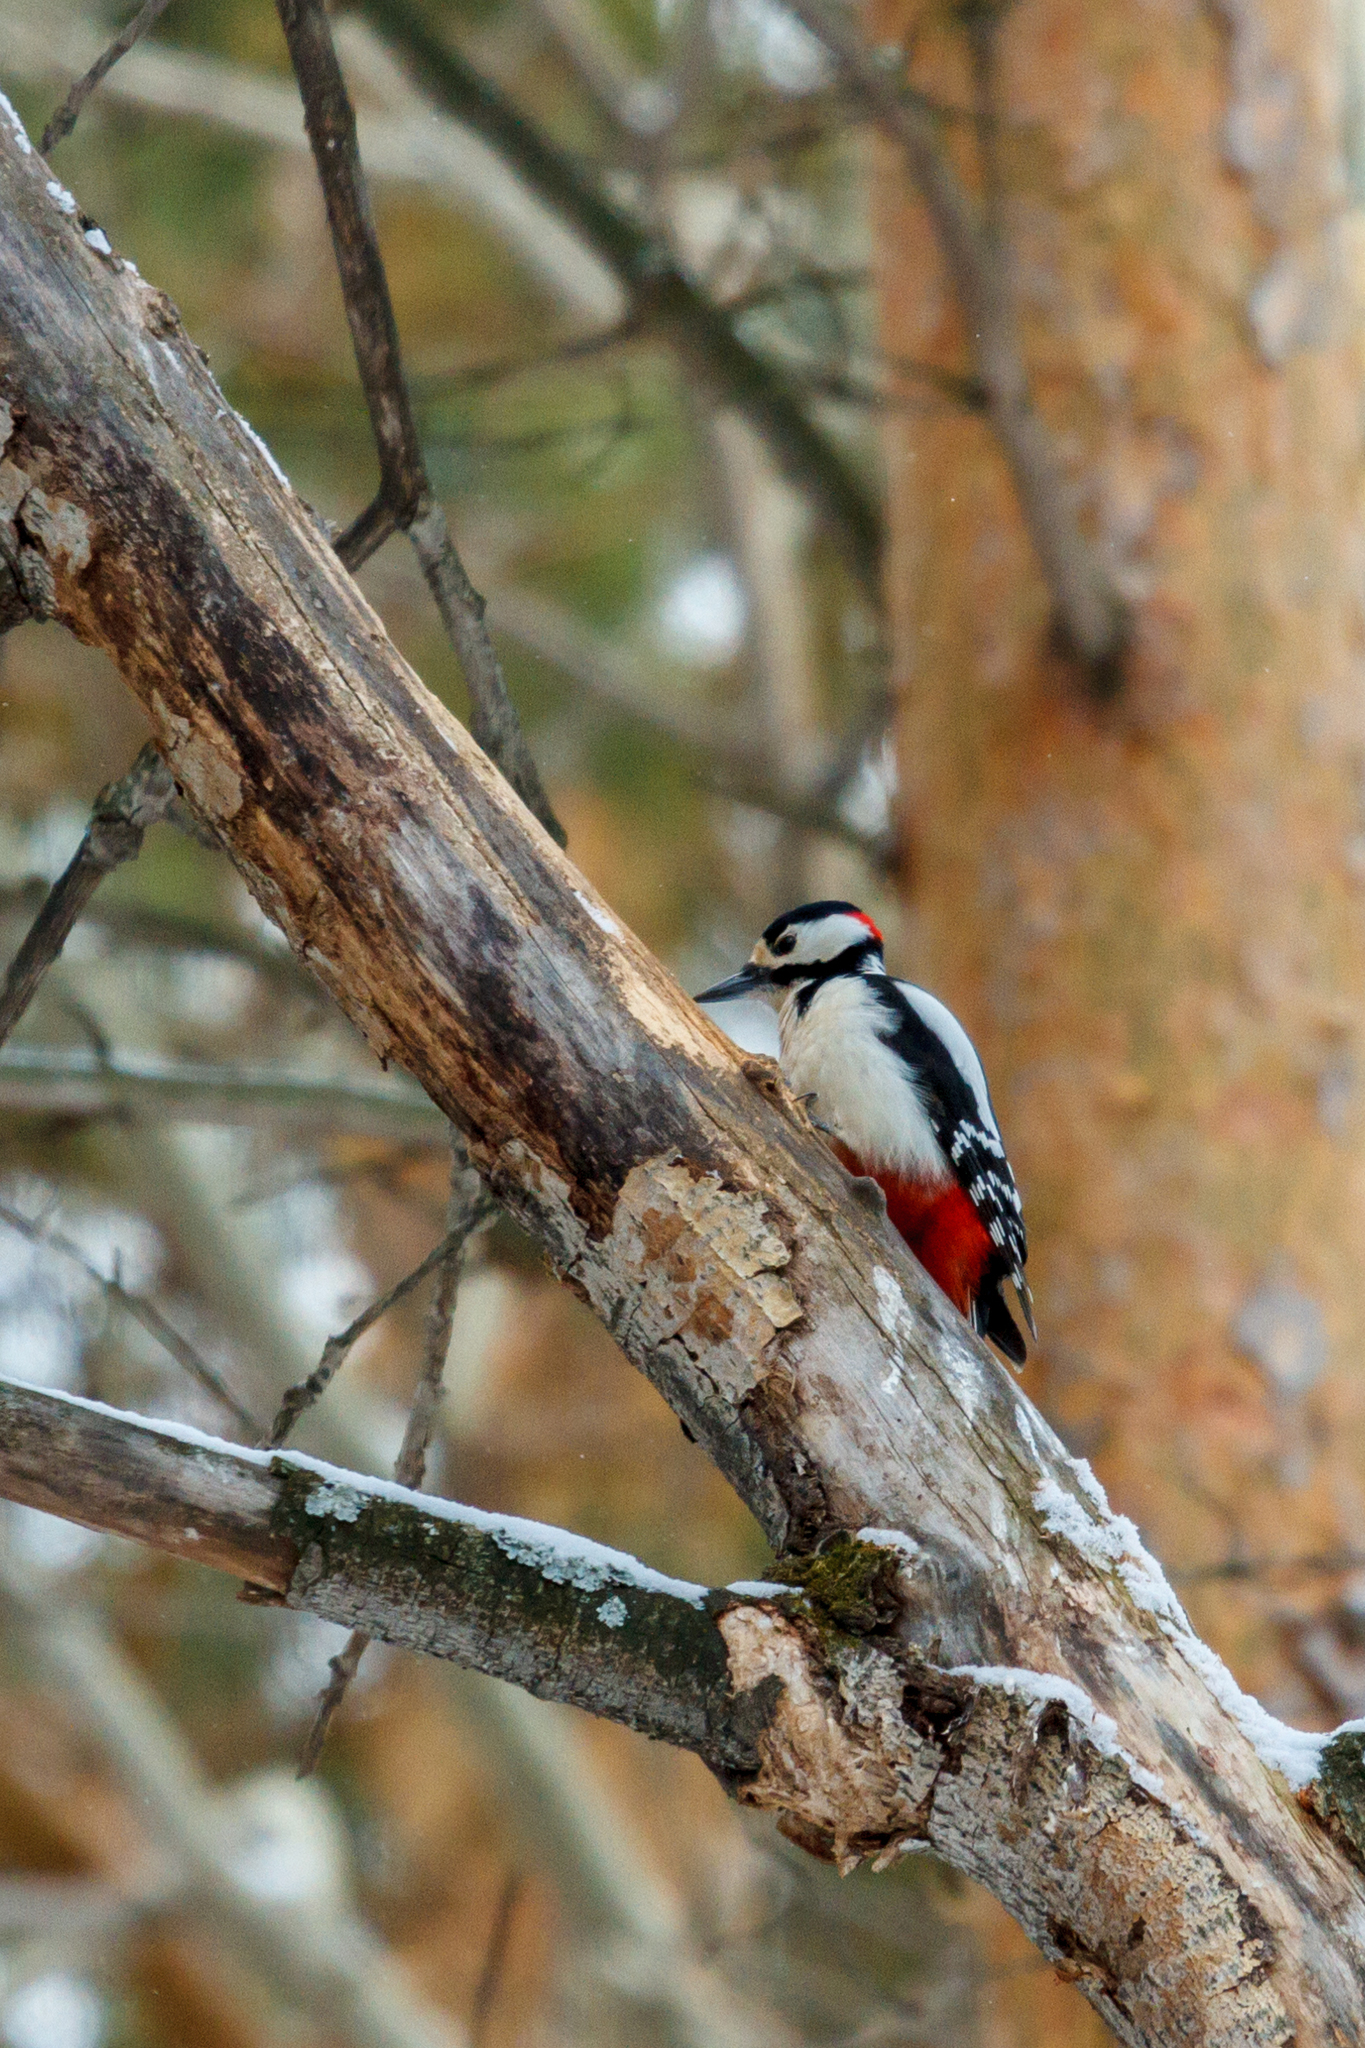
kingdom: Animalia
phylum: Chordata
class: Aves
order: Piciformes
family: Picidae
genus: Dendrocopos
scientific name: Dendrocopos major
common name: Great spotted woodpecker
